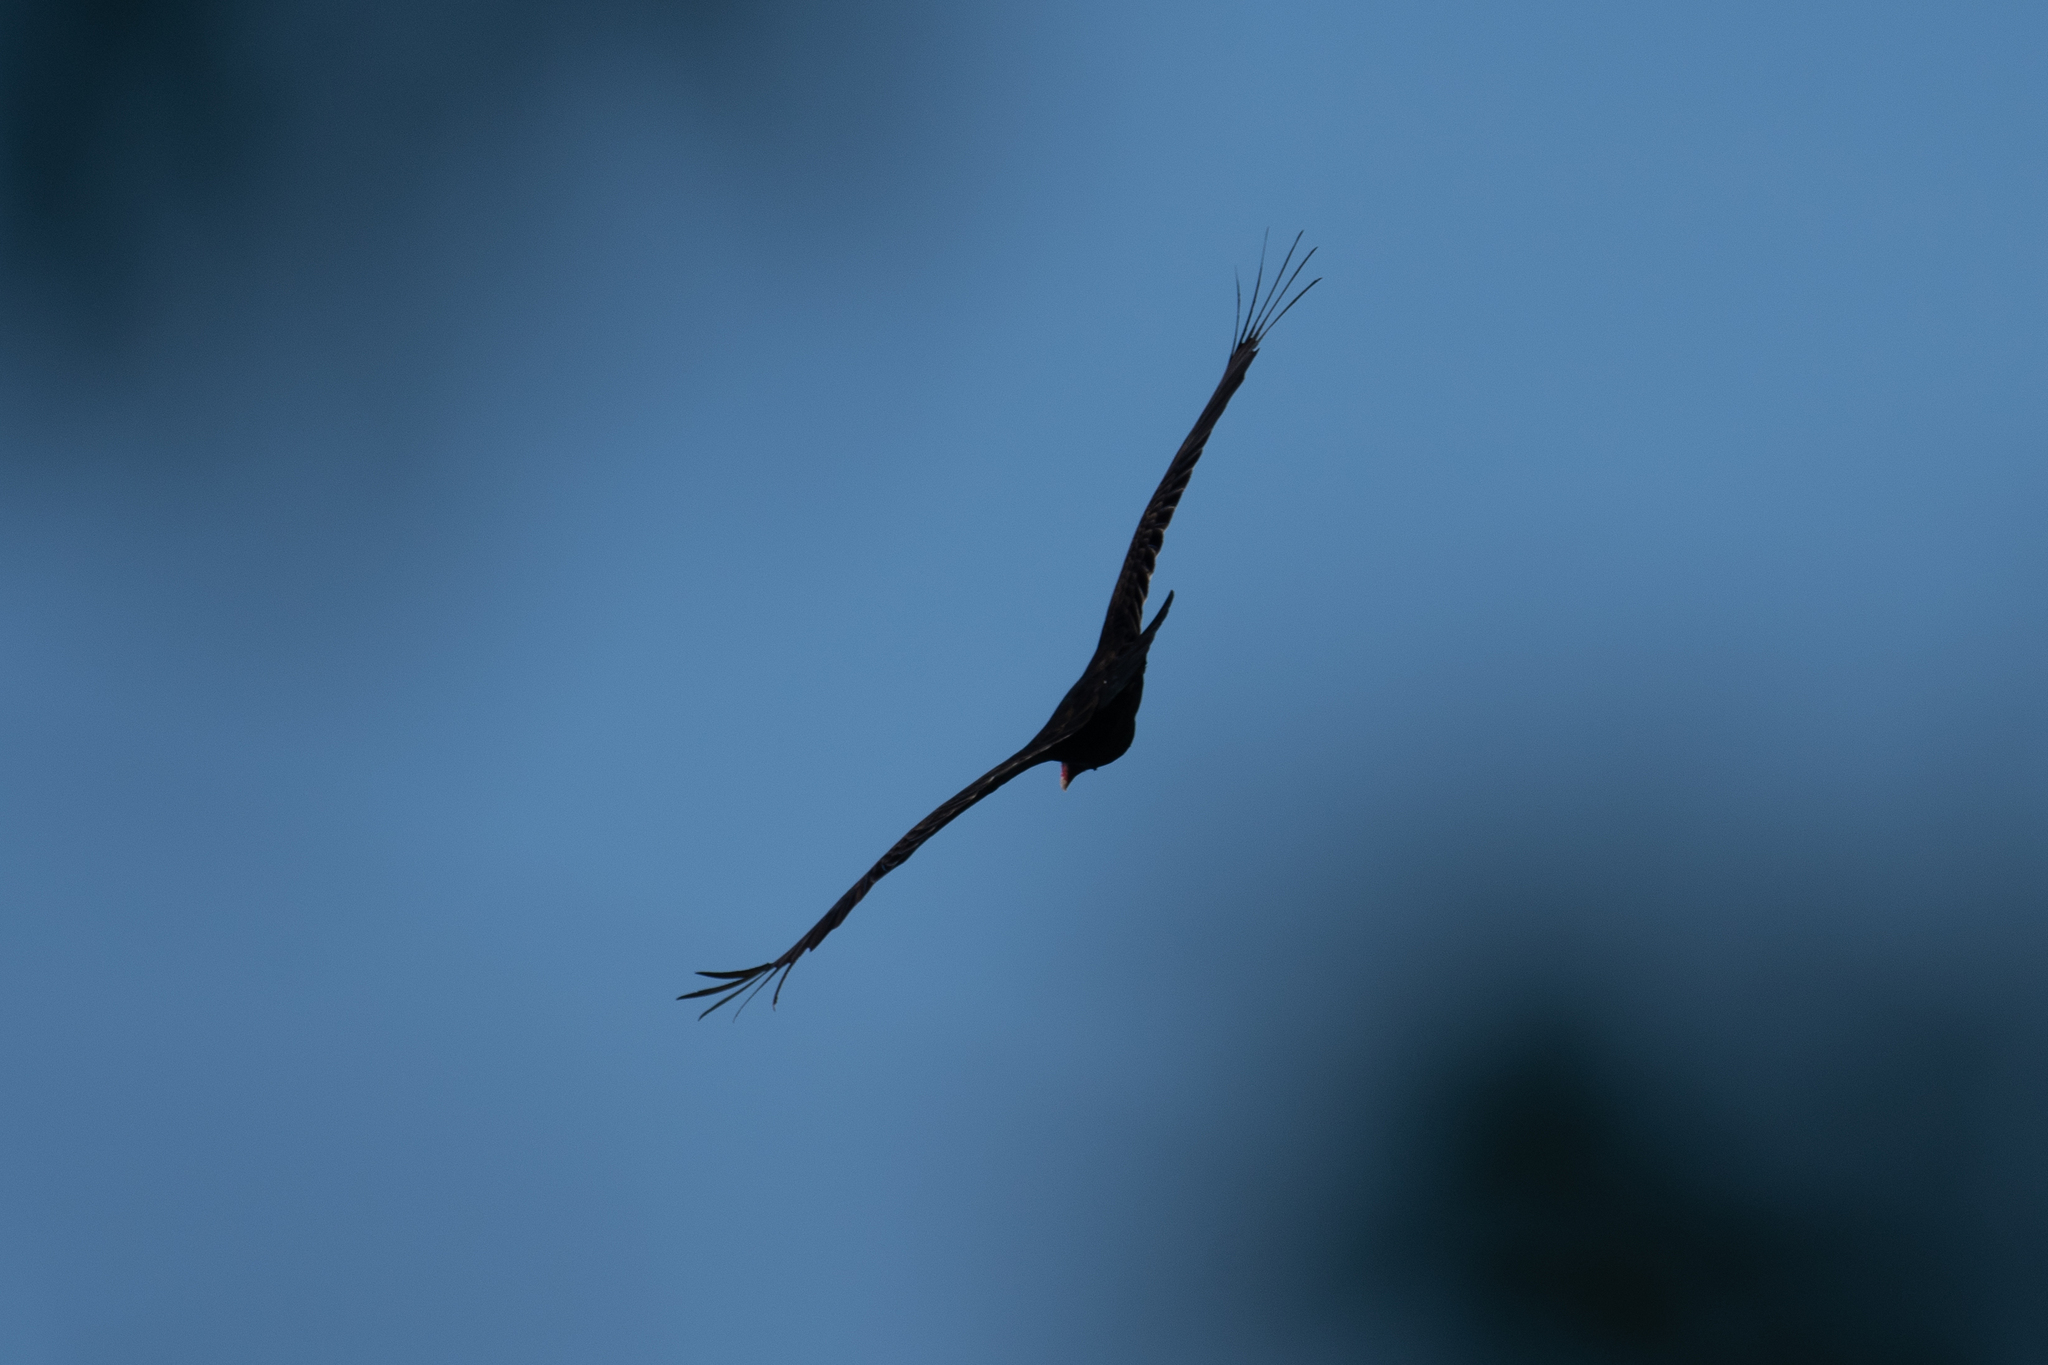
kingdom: Animalia
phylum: Chordata
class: Aves
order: Accipitriformes
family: Cathartidae
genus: Cathartes
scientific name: Cathartes aura
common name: Turkey vulture
